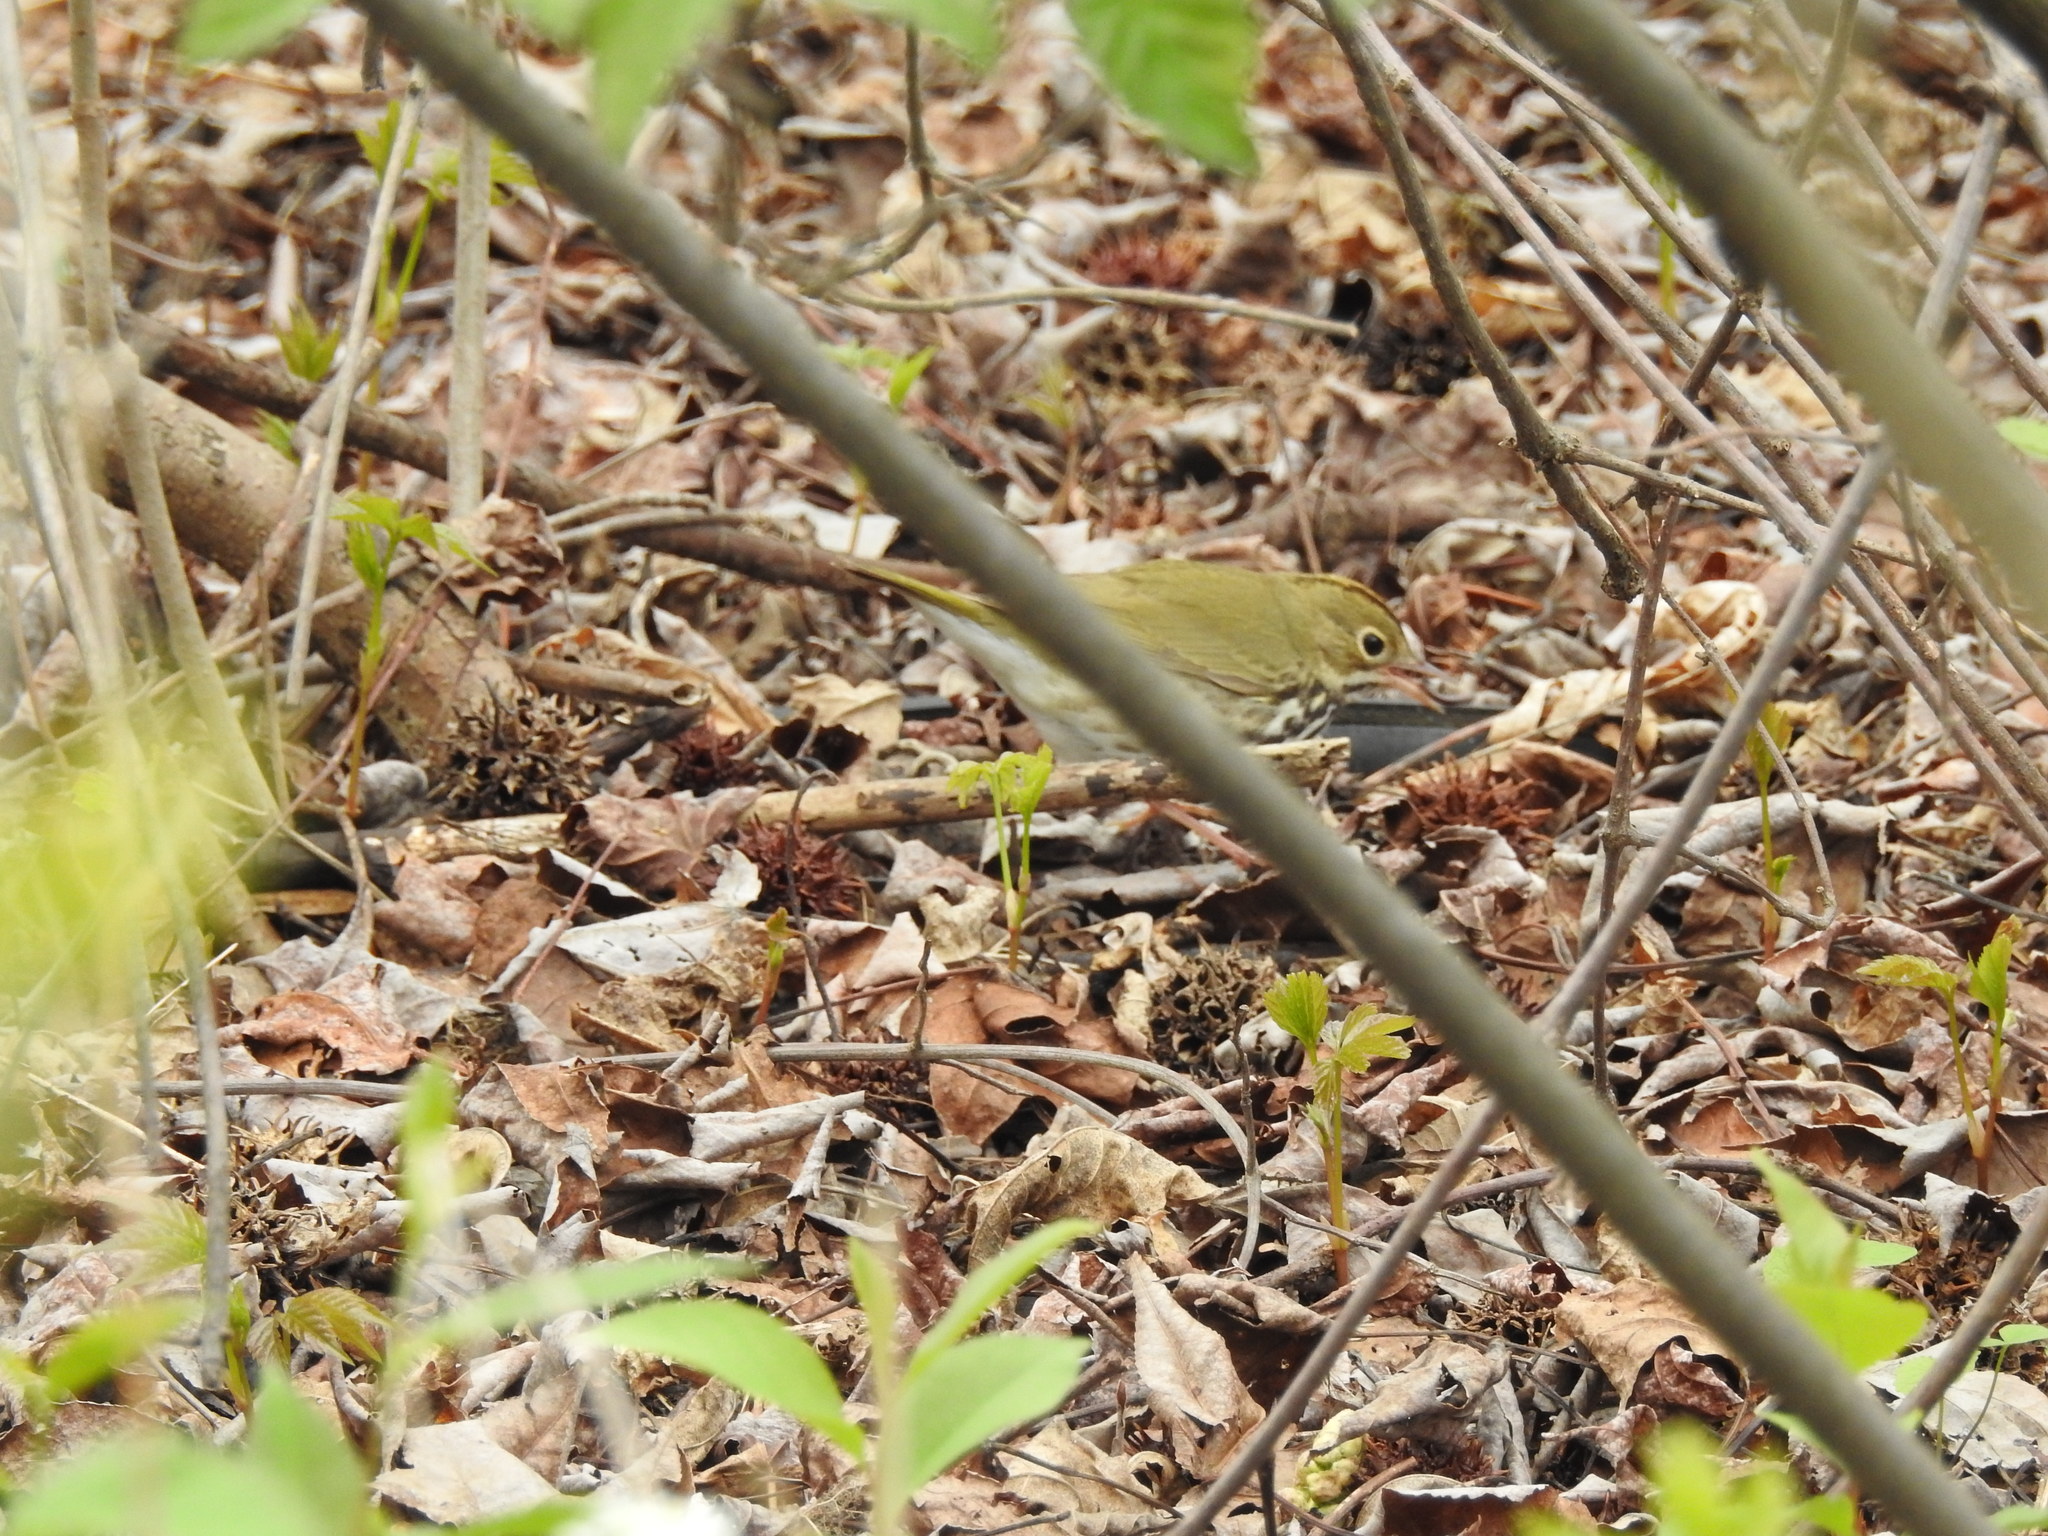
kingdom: Animalia
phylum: Chordata
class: Aves
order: Passeriformes
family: Parulidae
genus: Seiurus
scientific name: Seiurus aurocapilla
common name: Ovenbird
